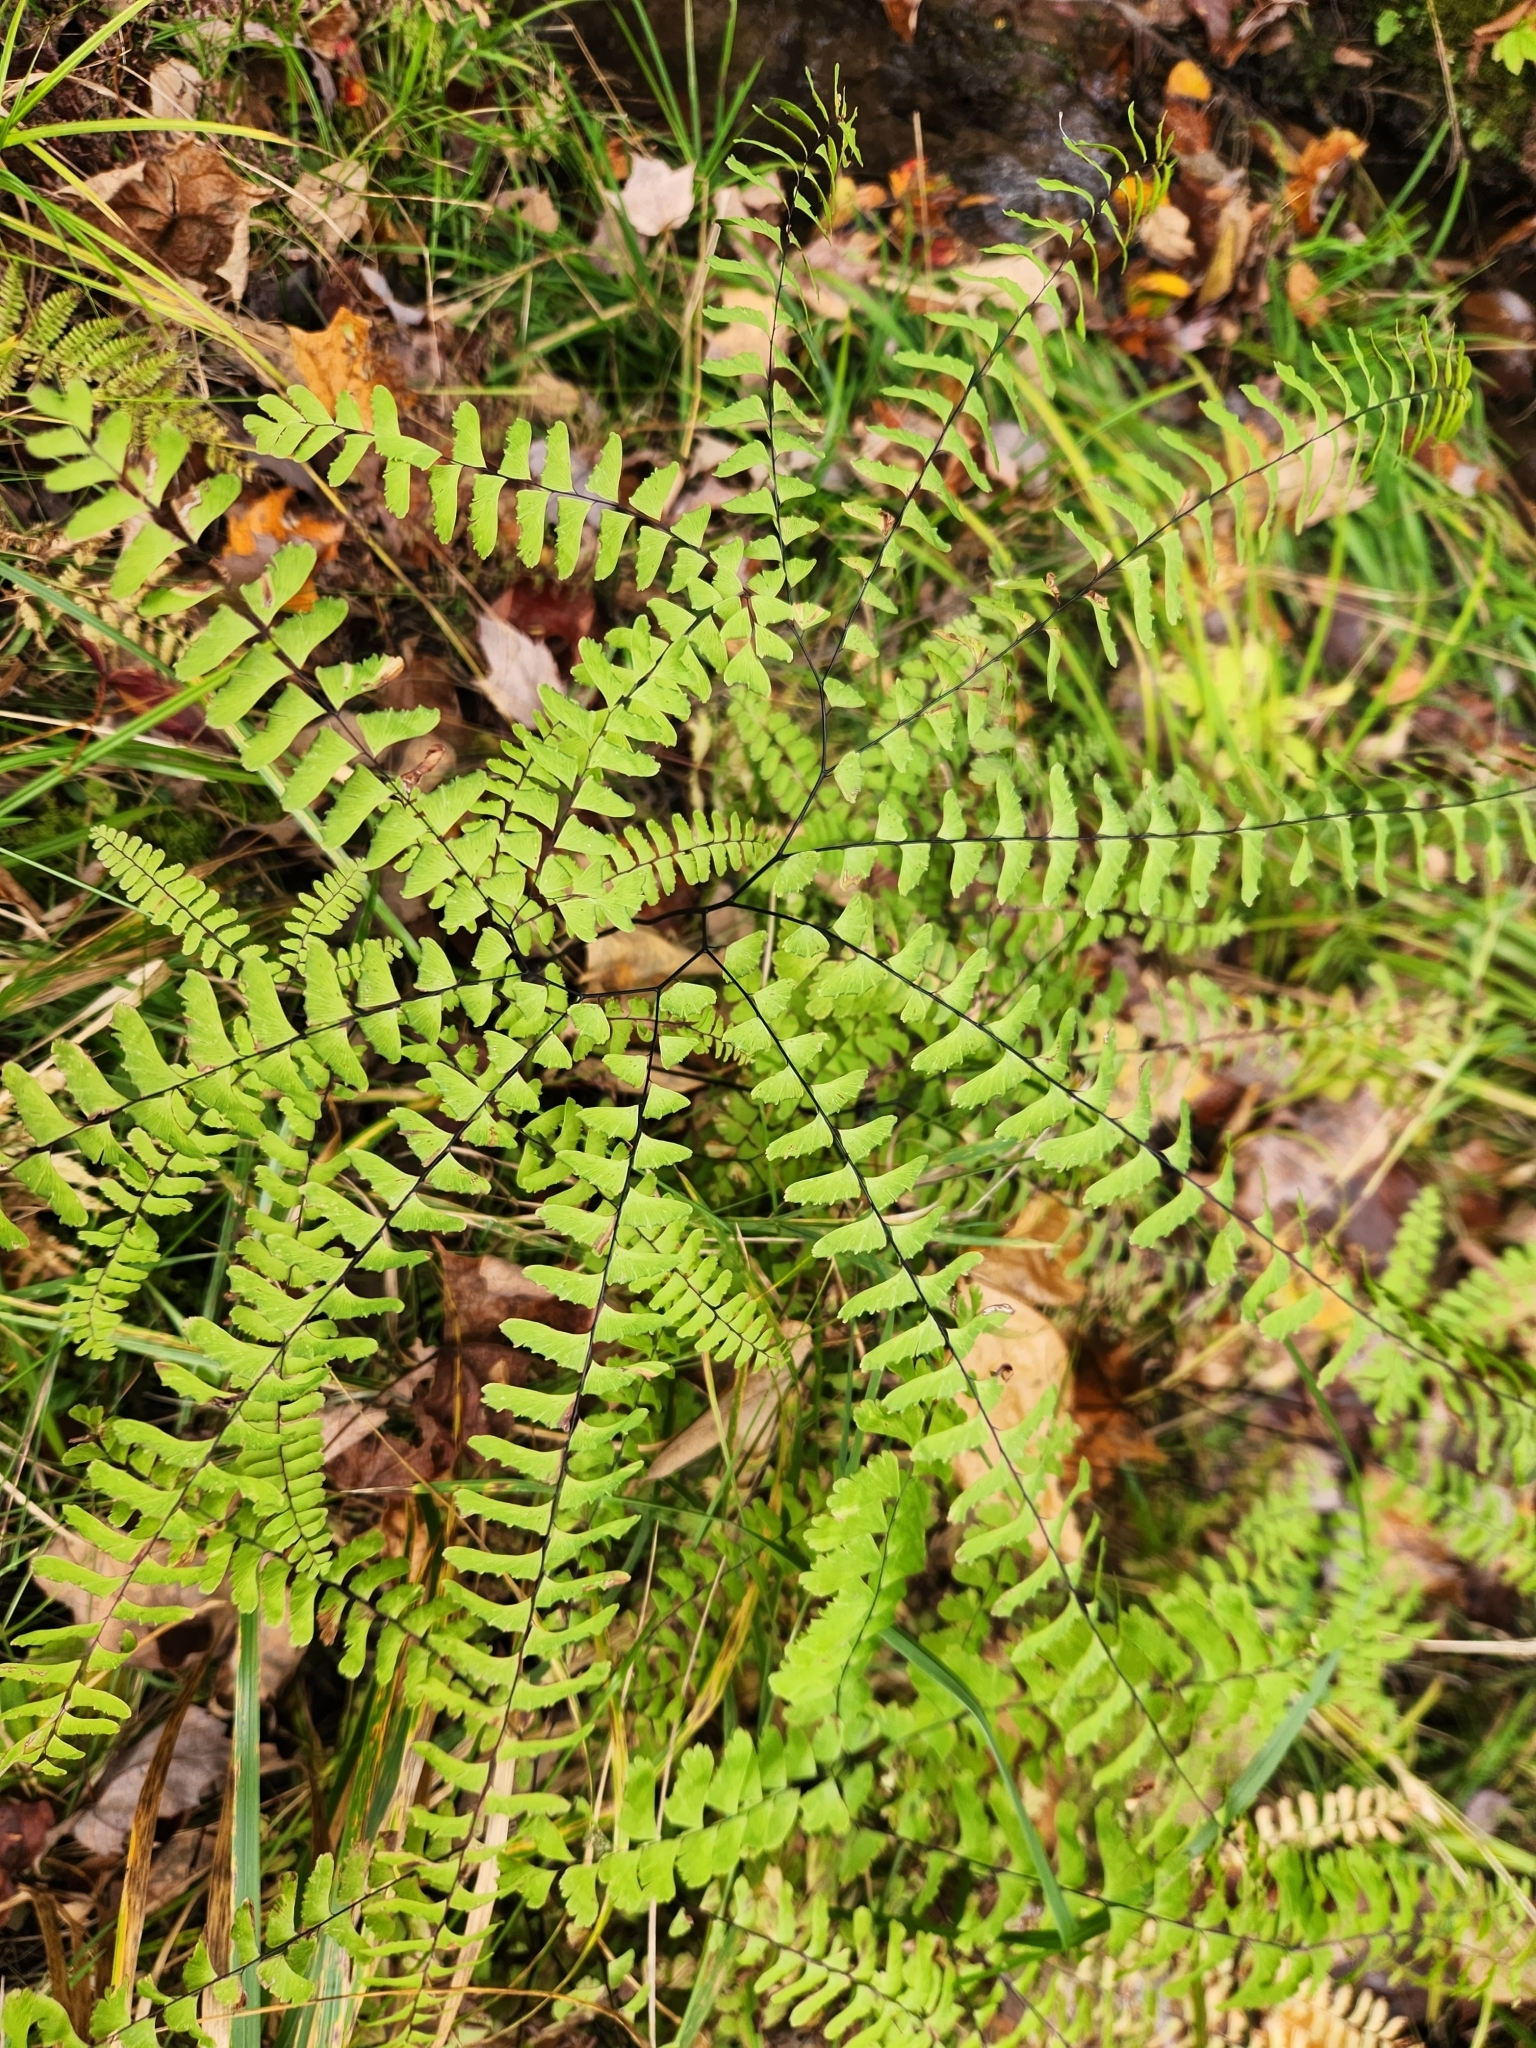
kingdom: Plantae
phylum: Tracheophyta
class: Polypodiopsida
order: Polypodiales
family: Pteridaceae
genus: Adiantum
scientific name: Adiantum pedatum
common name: Five-finger fern
